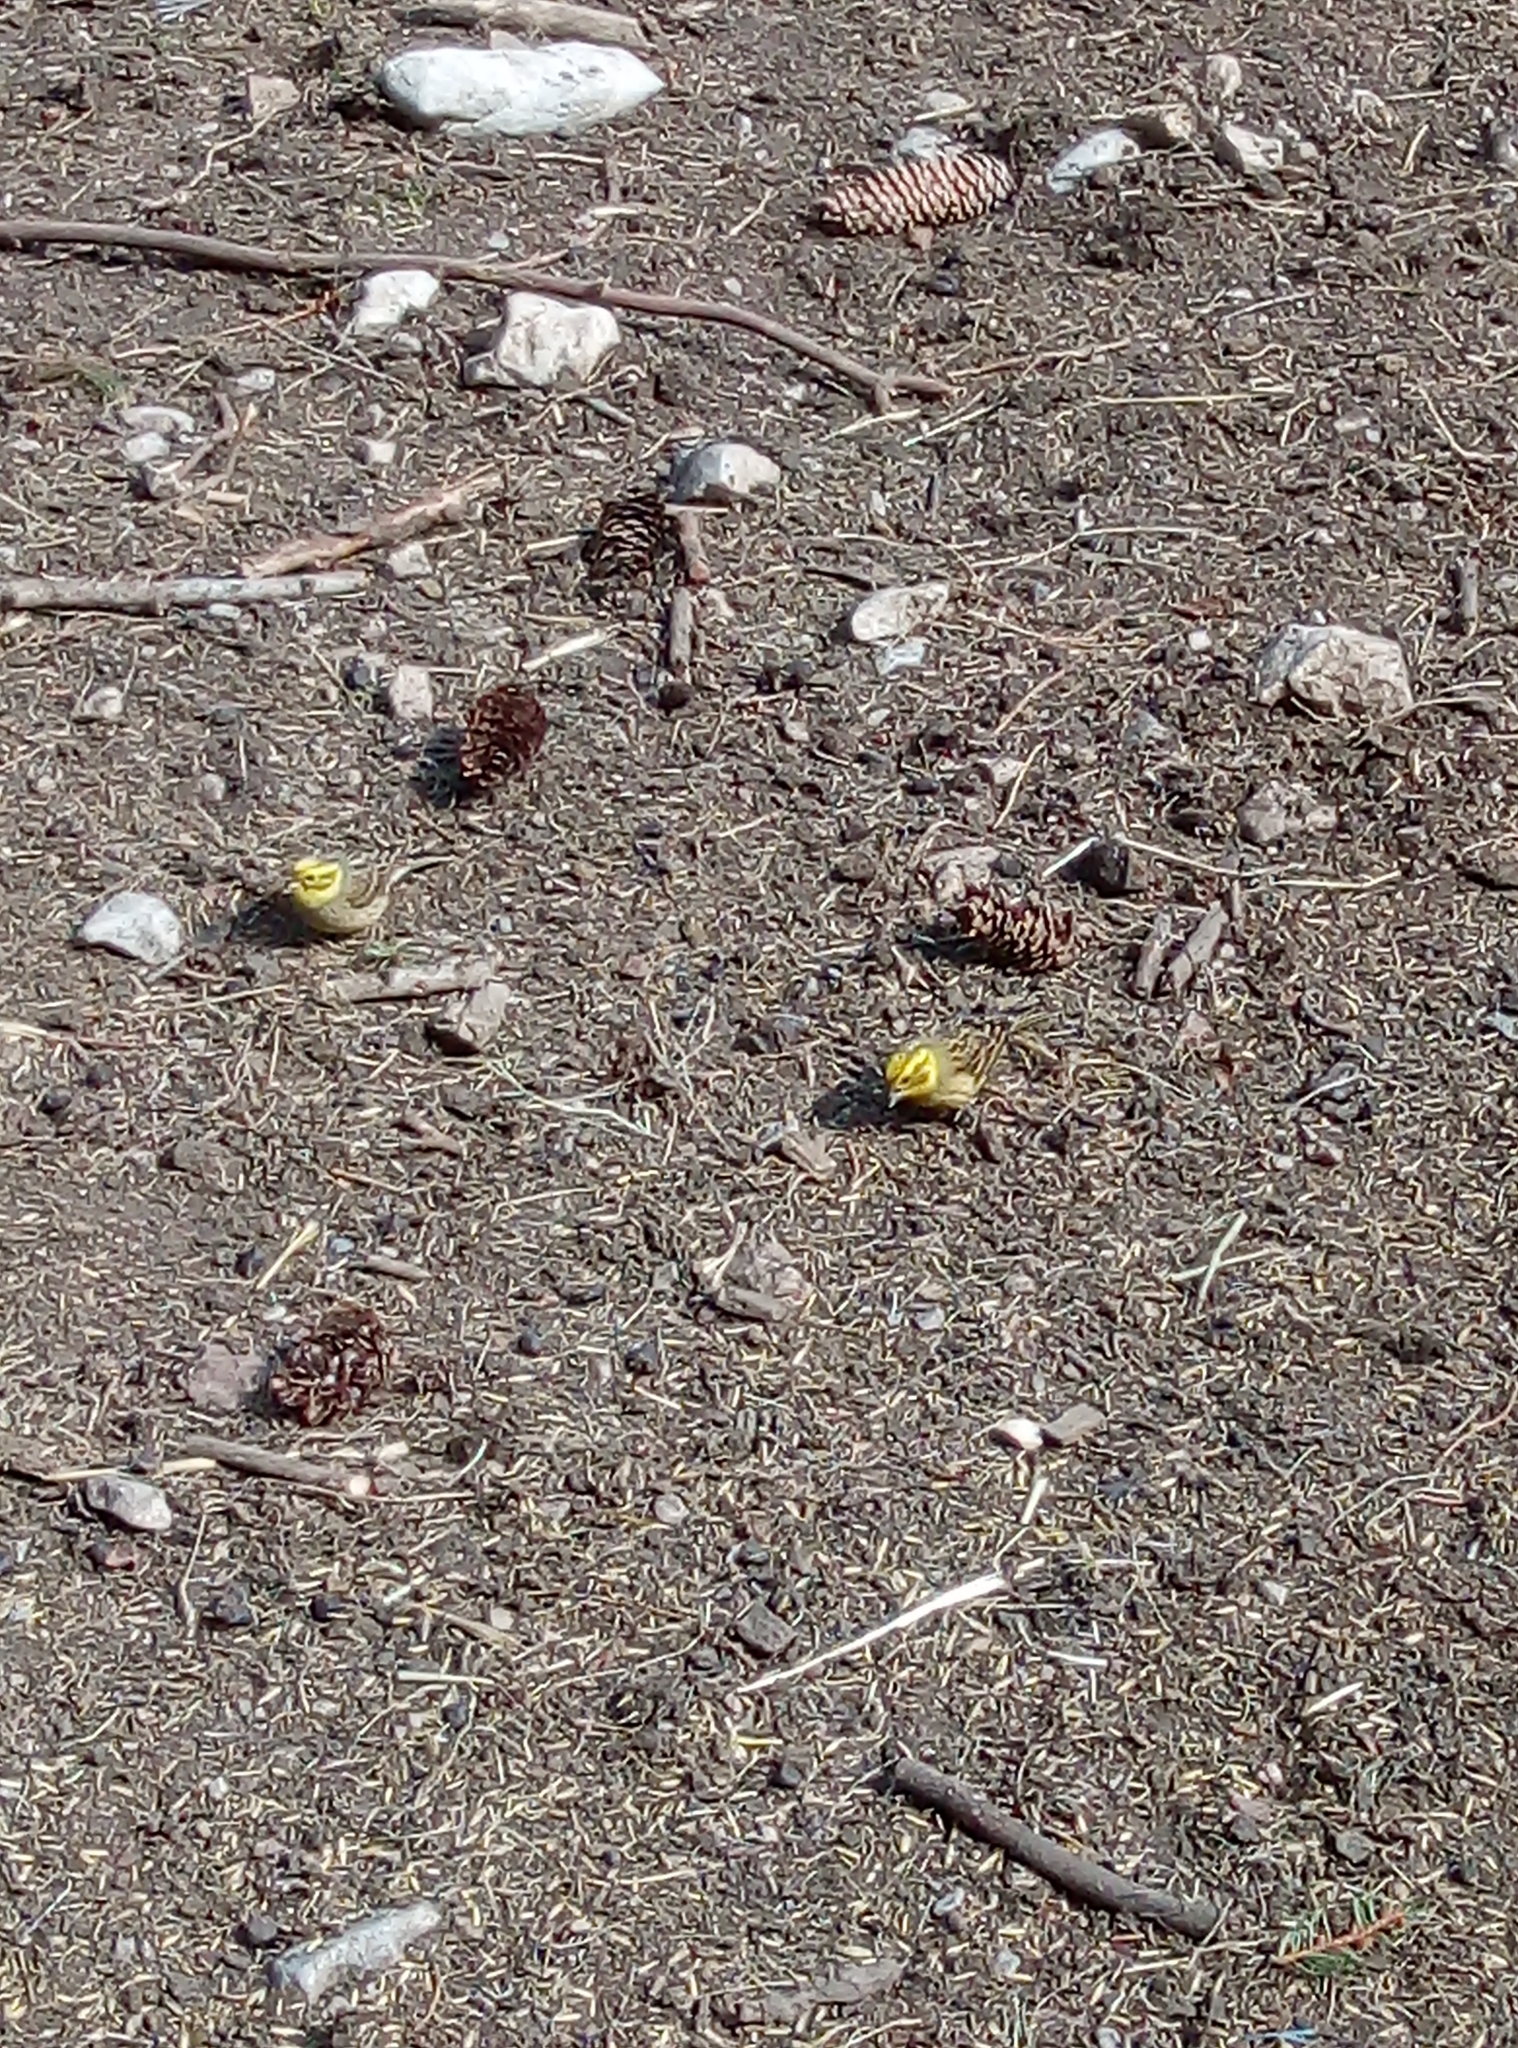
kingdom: Animalia
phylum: Chordata
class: Aves
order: Passeriformes
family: Emberizidae
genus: Emberiza
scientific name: Emberiza citrinella
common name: Yellowhammer
